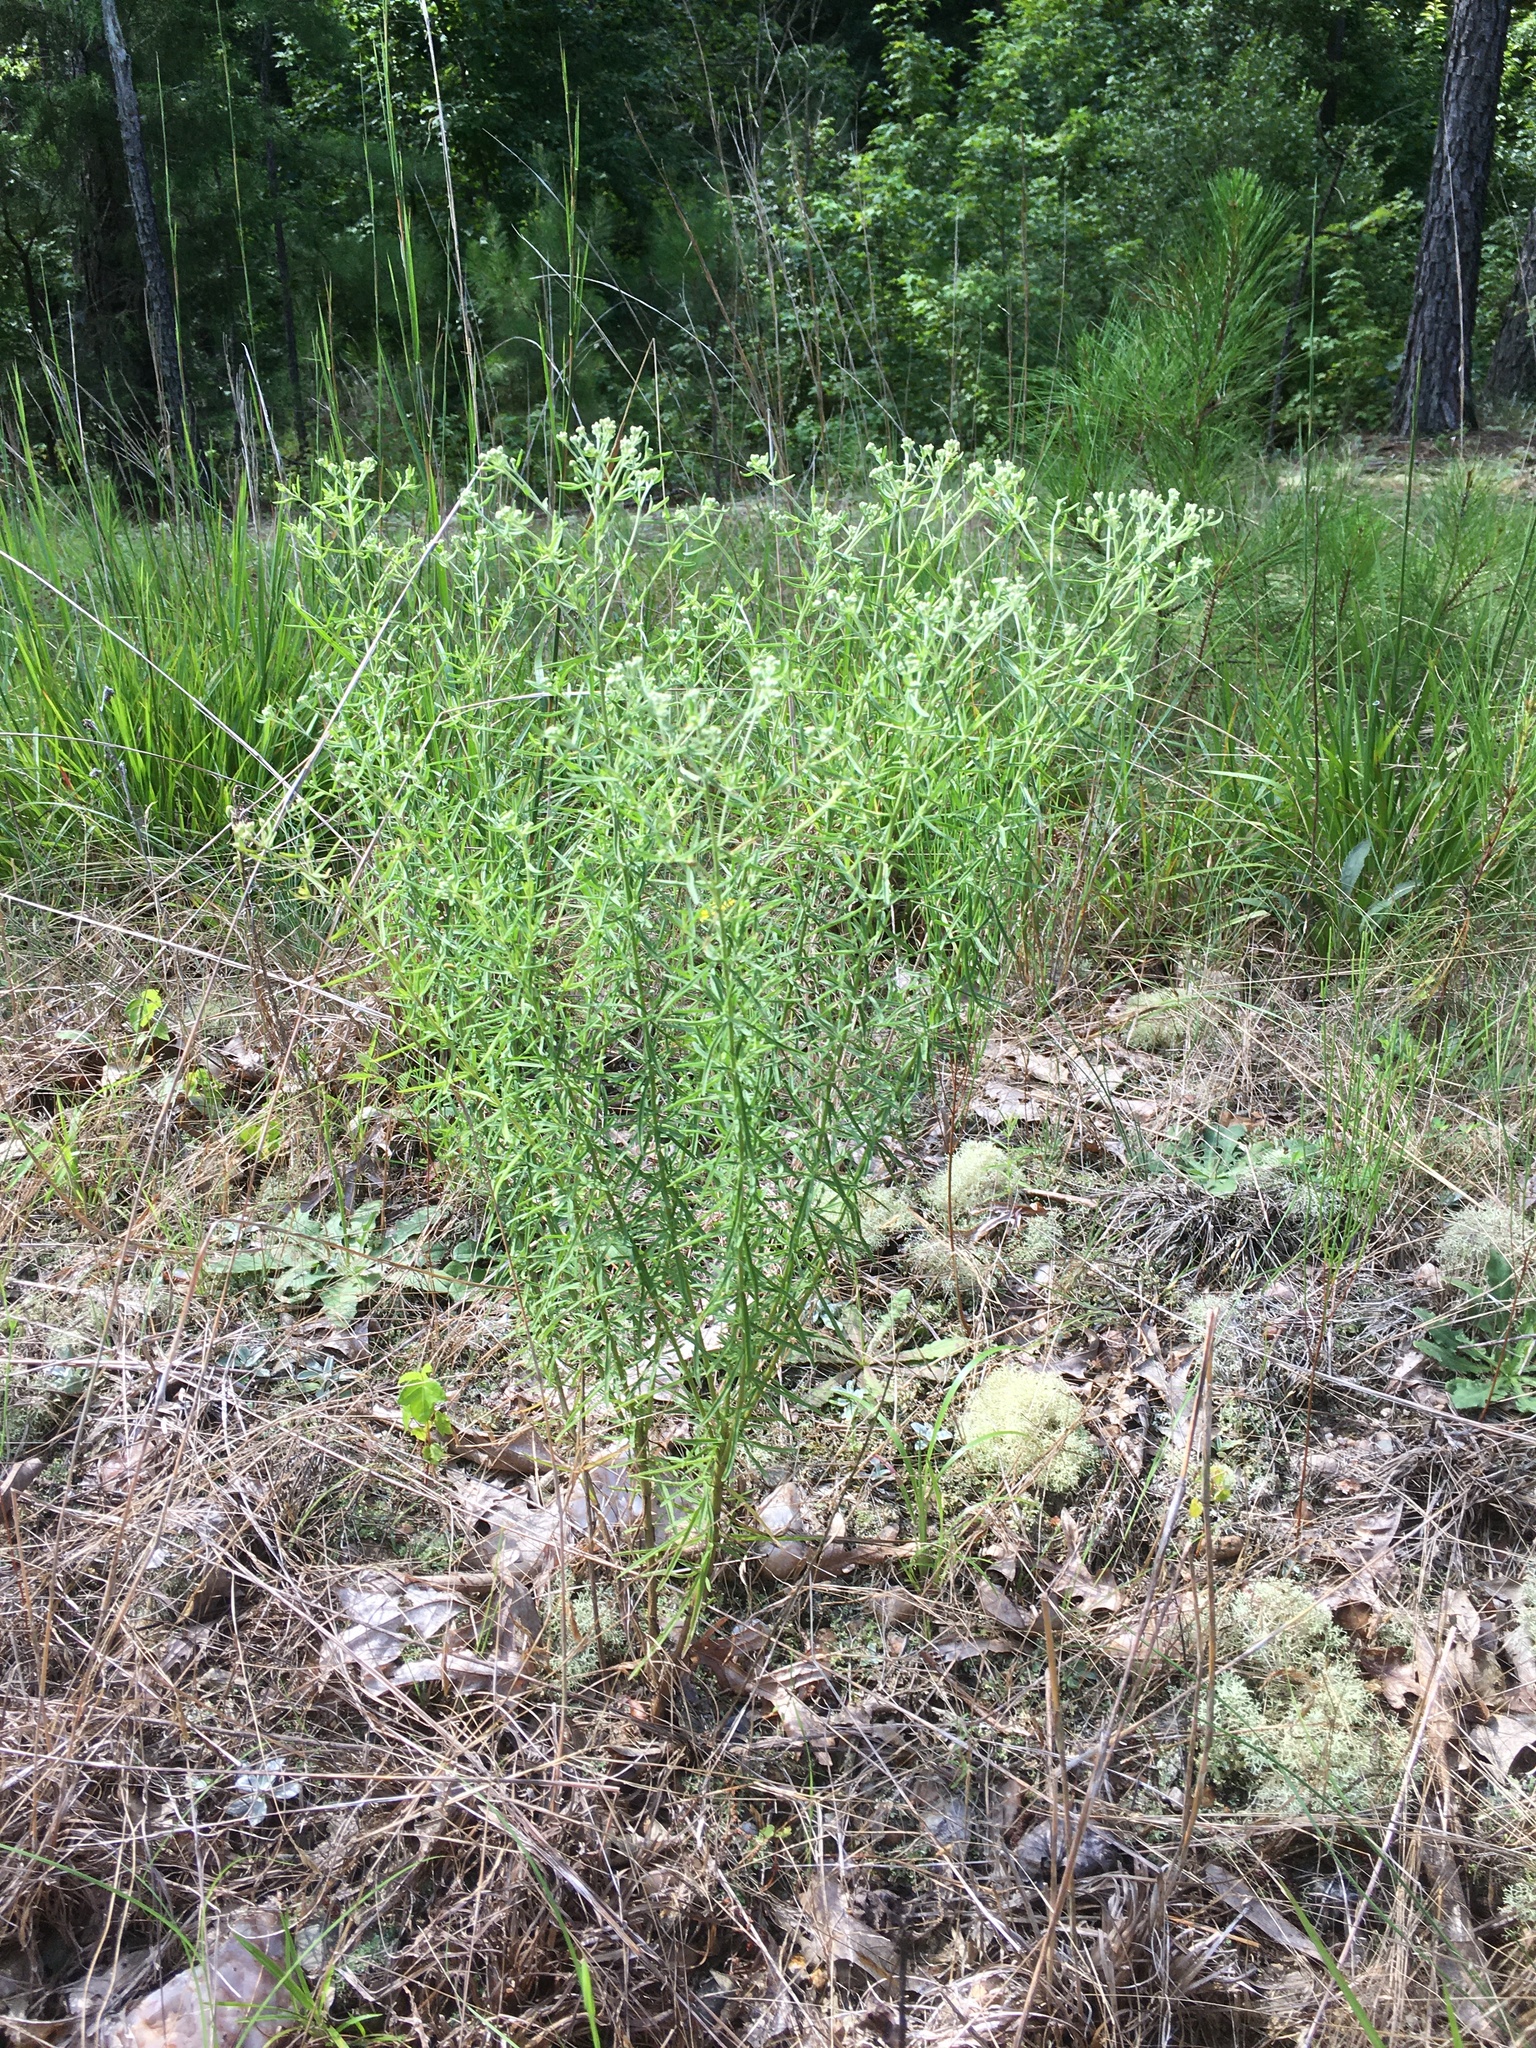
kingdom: Plantae
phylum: Tracheophyta
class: Magnoliopsida
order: Asterales
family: Asteraceae
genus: Eupatorium
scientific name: Eupatorium hyssopifolium
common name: Hyssop-leaf thoroughwort
